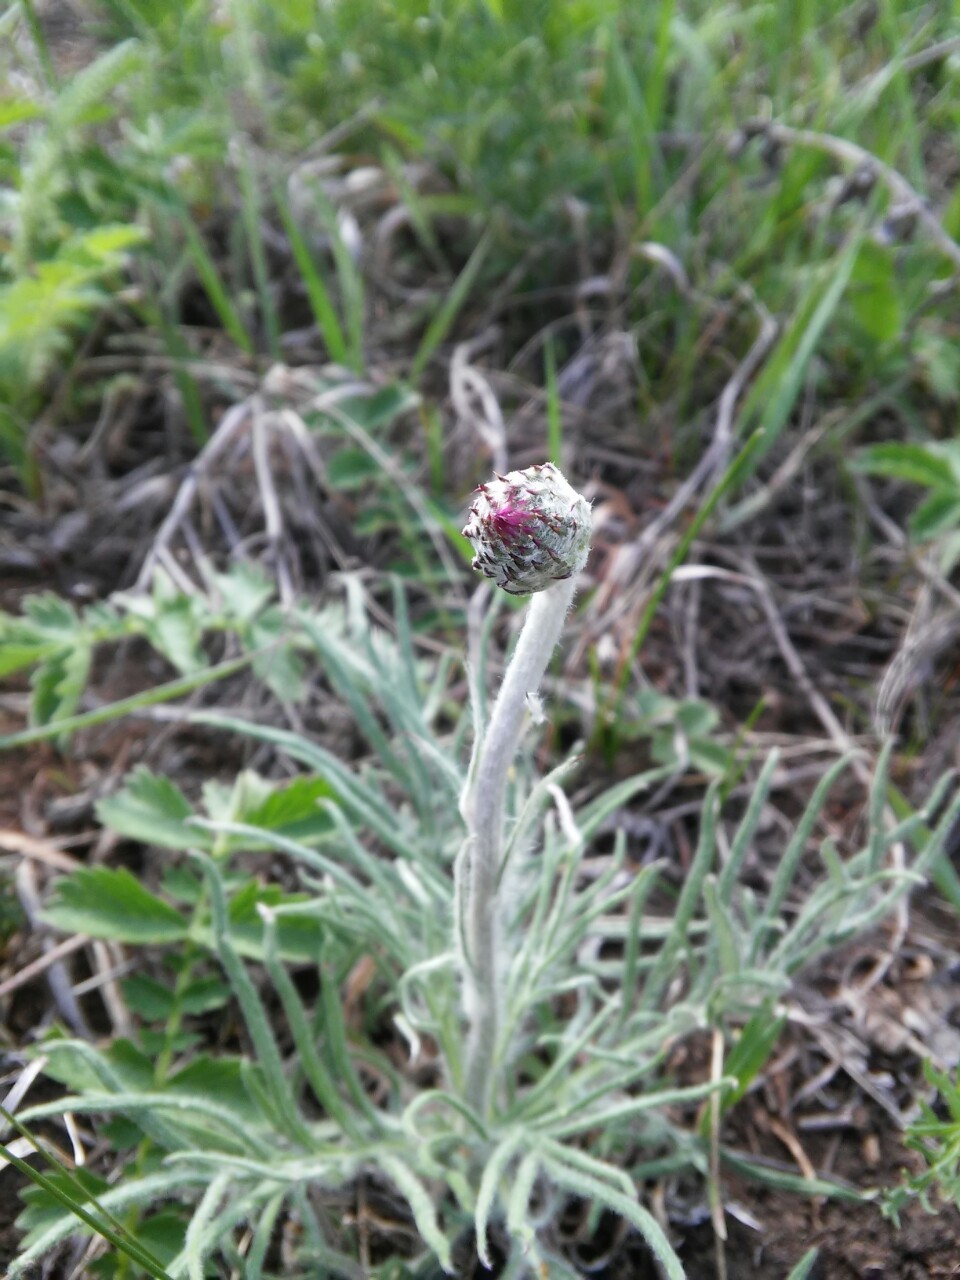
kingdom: Plantae
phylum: Tracheophyta
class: Magnoliopsida
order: Asterales
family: Asteraceae
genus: Jurinea
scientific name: Jurinea arachnoidea
